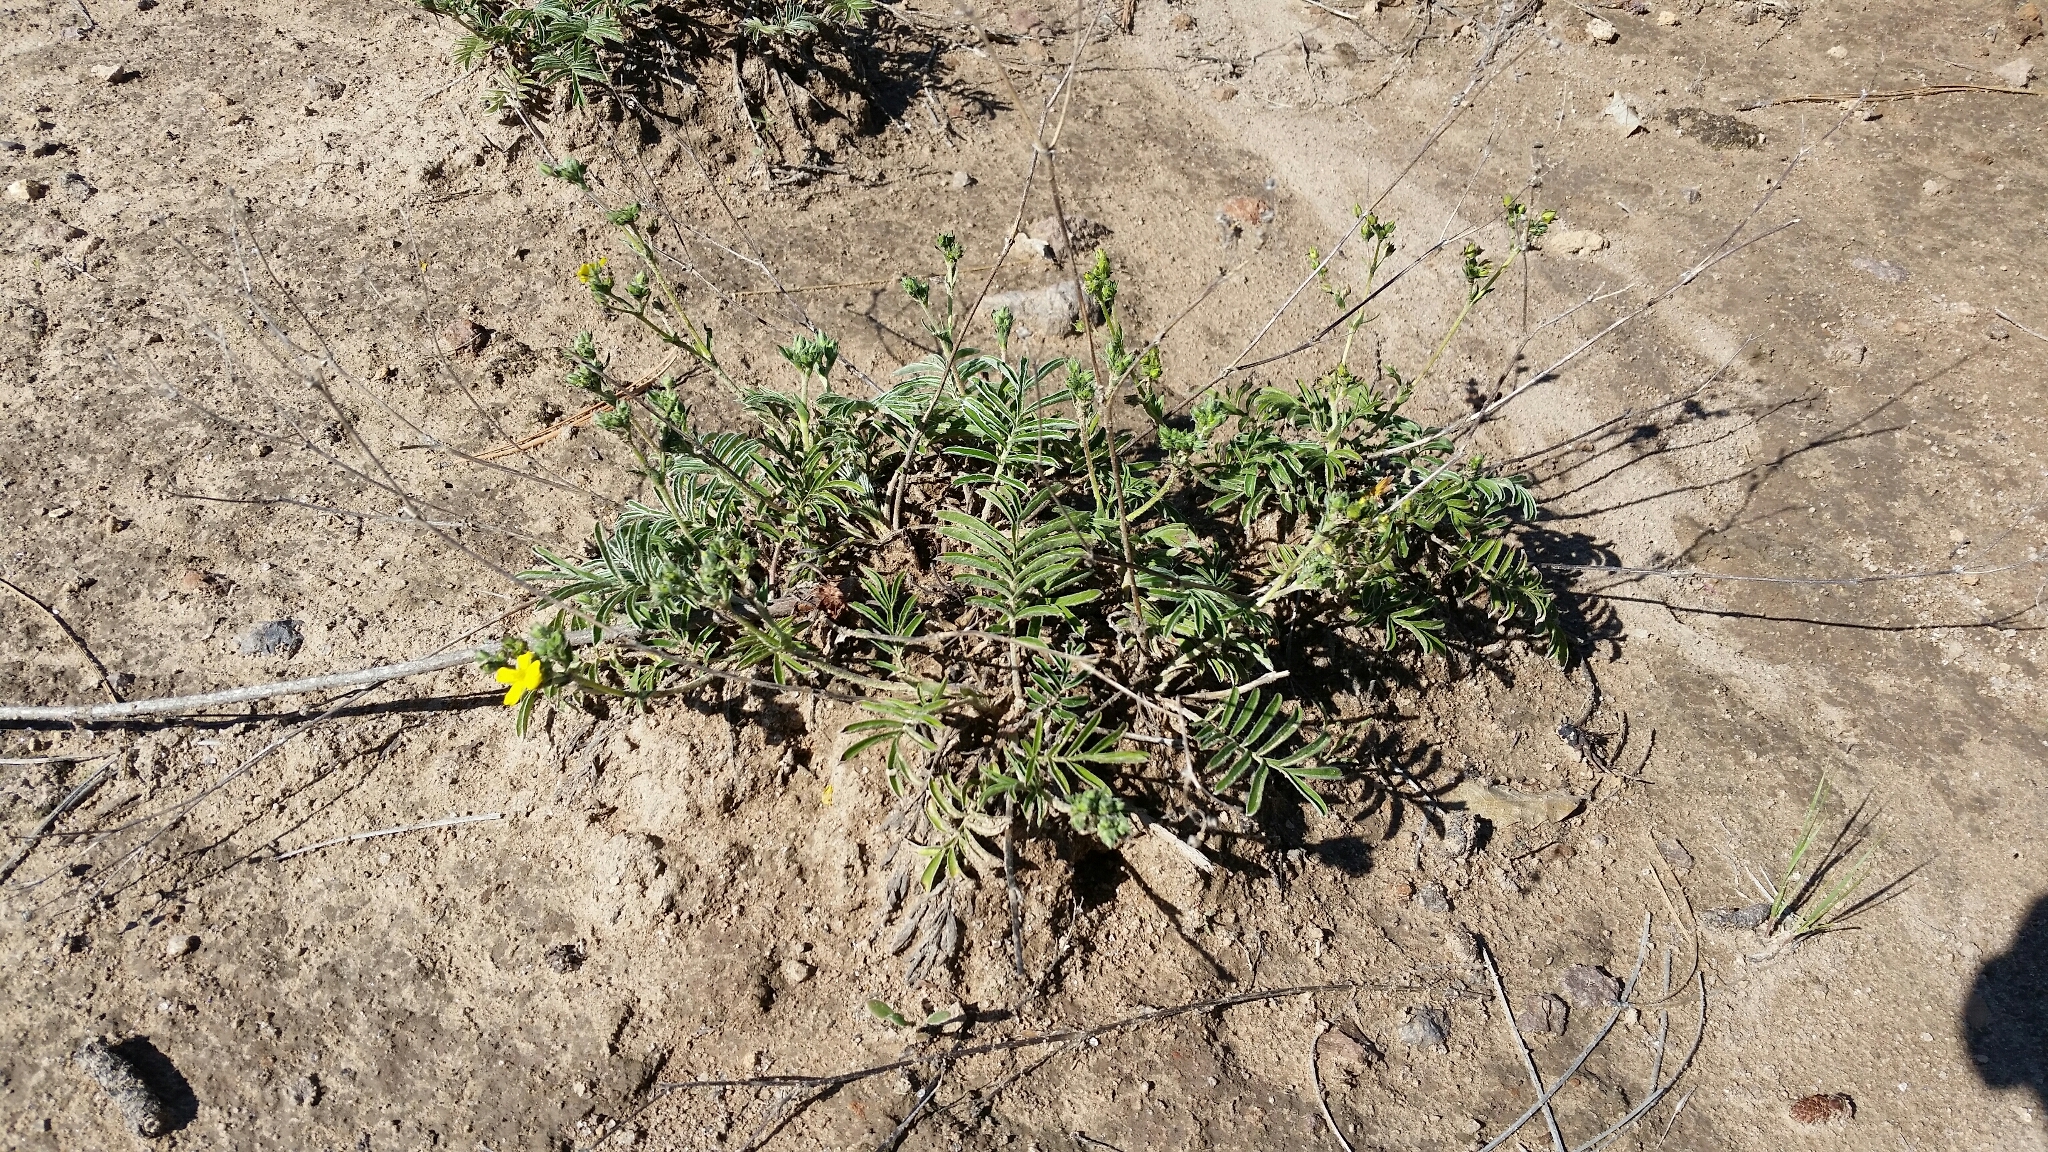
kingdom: Plantae
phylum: Tracheophyta
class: Magnoliopsida
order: Rosales
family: Rosaceae
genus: Potentilla
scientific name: Potentilla crinita
